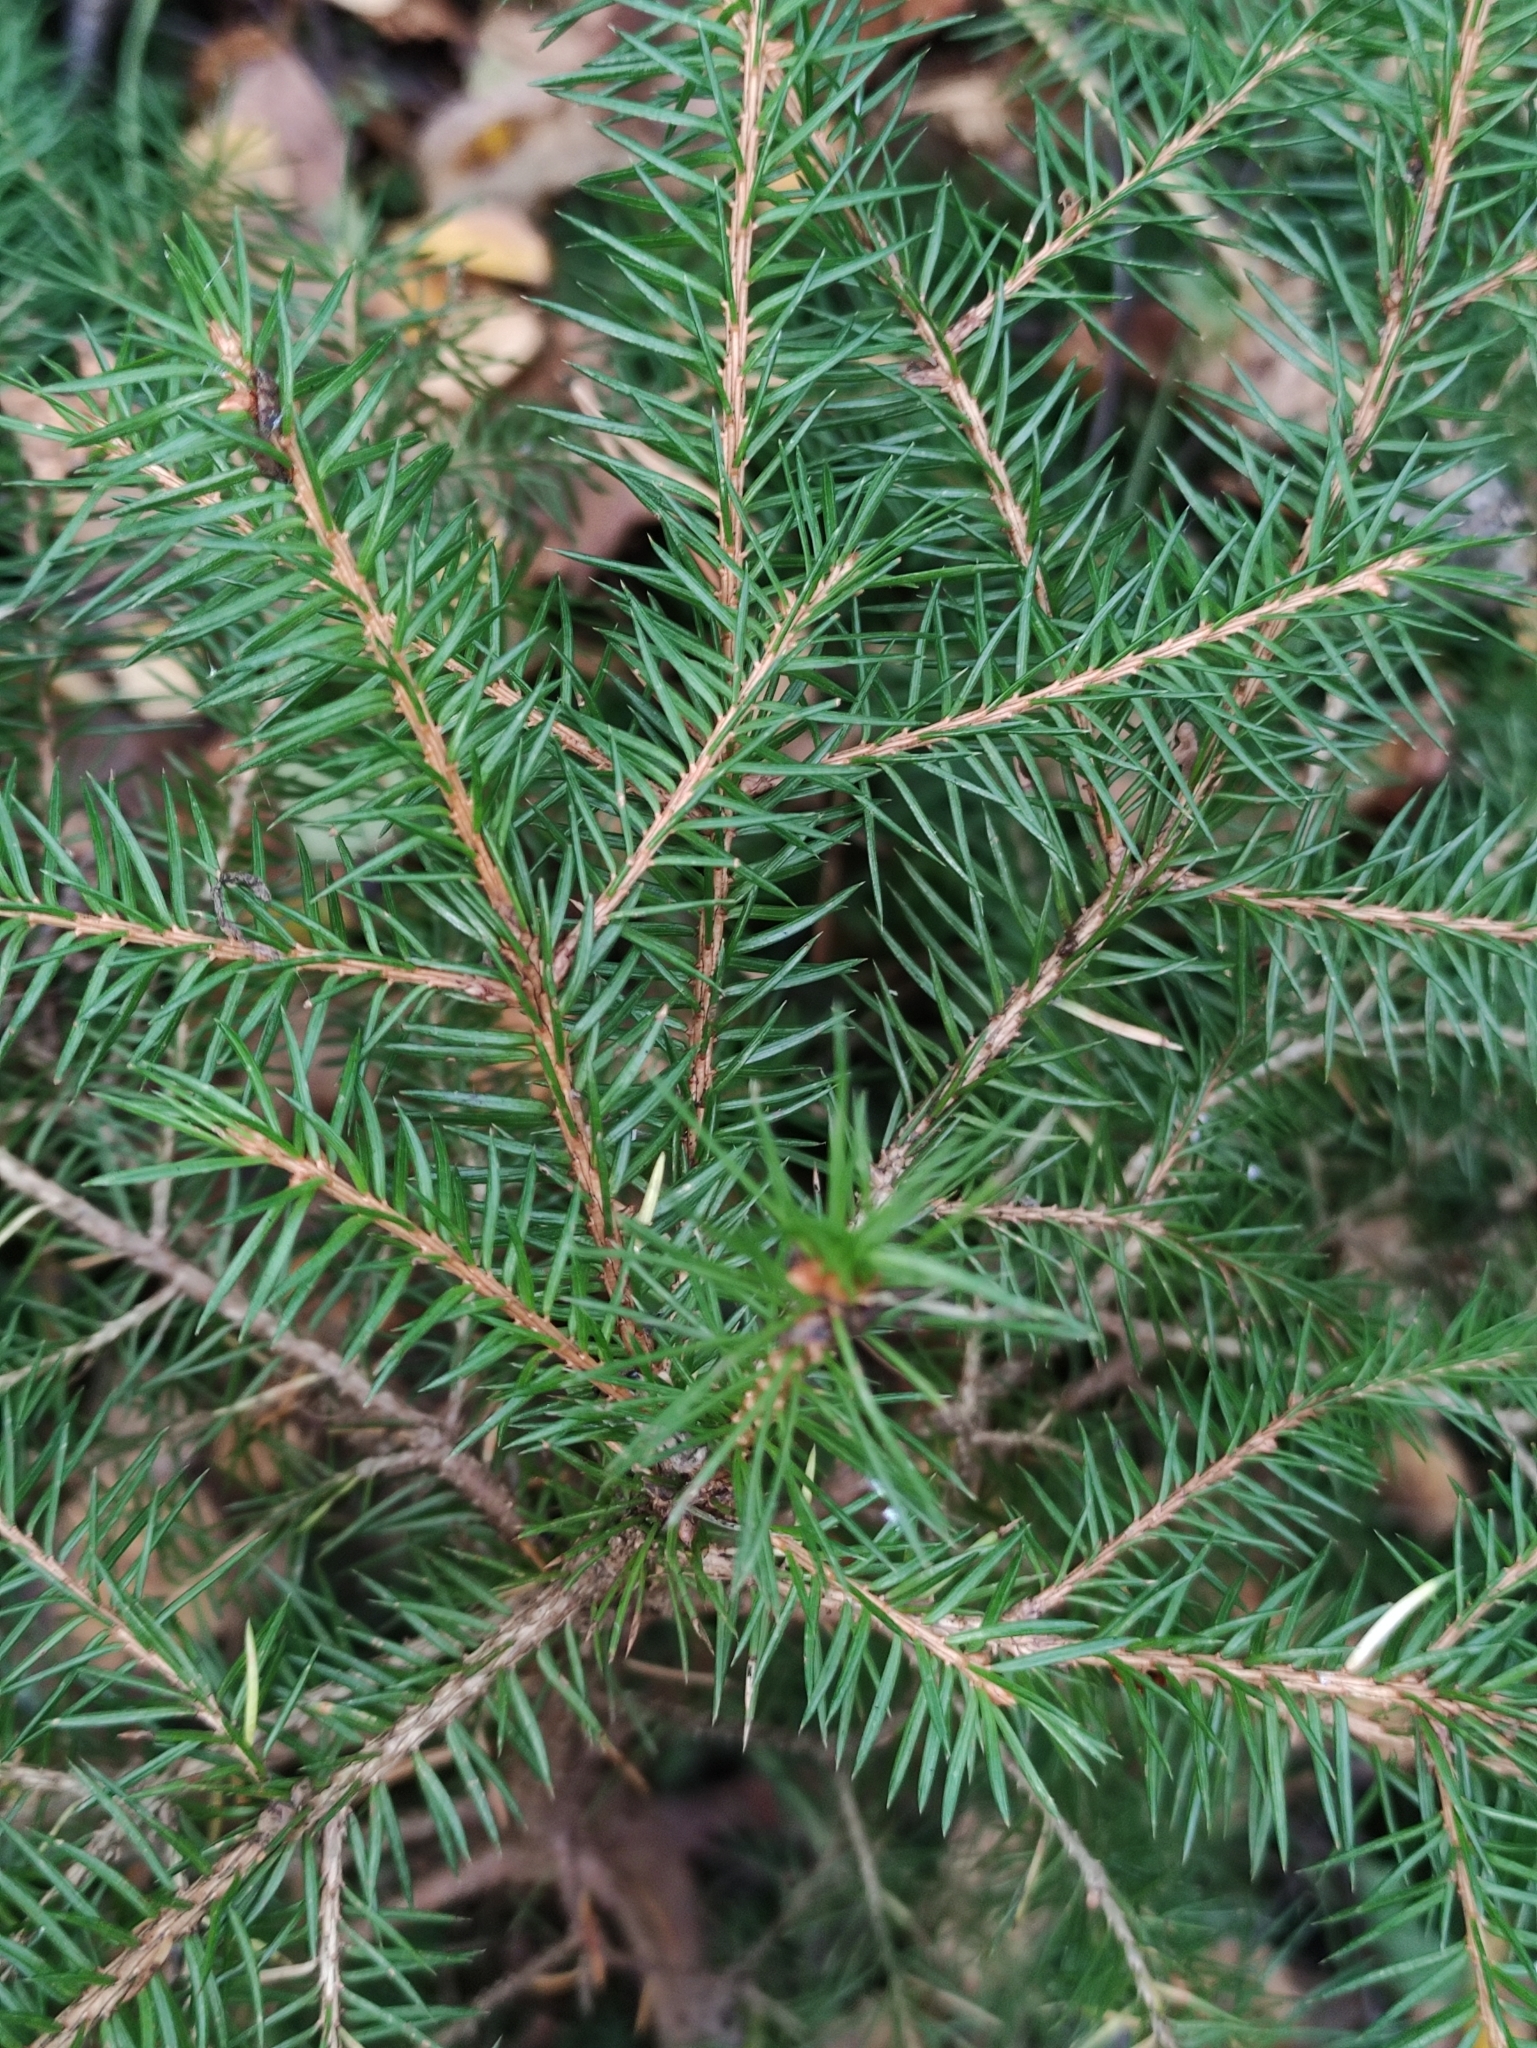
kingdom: Plantae
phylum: Tracheophyta
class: Pinopsida
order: Pinales
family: Pinaceae
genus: Picea
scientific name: Picea abies
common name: Norway spruce
